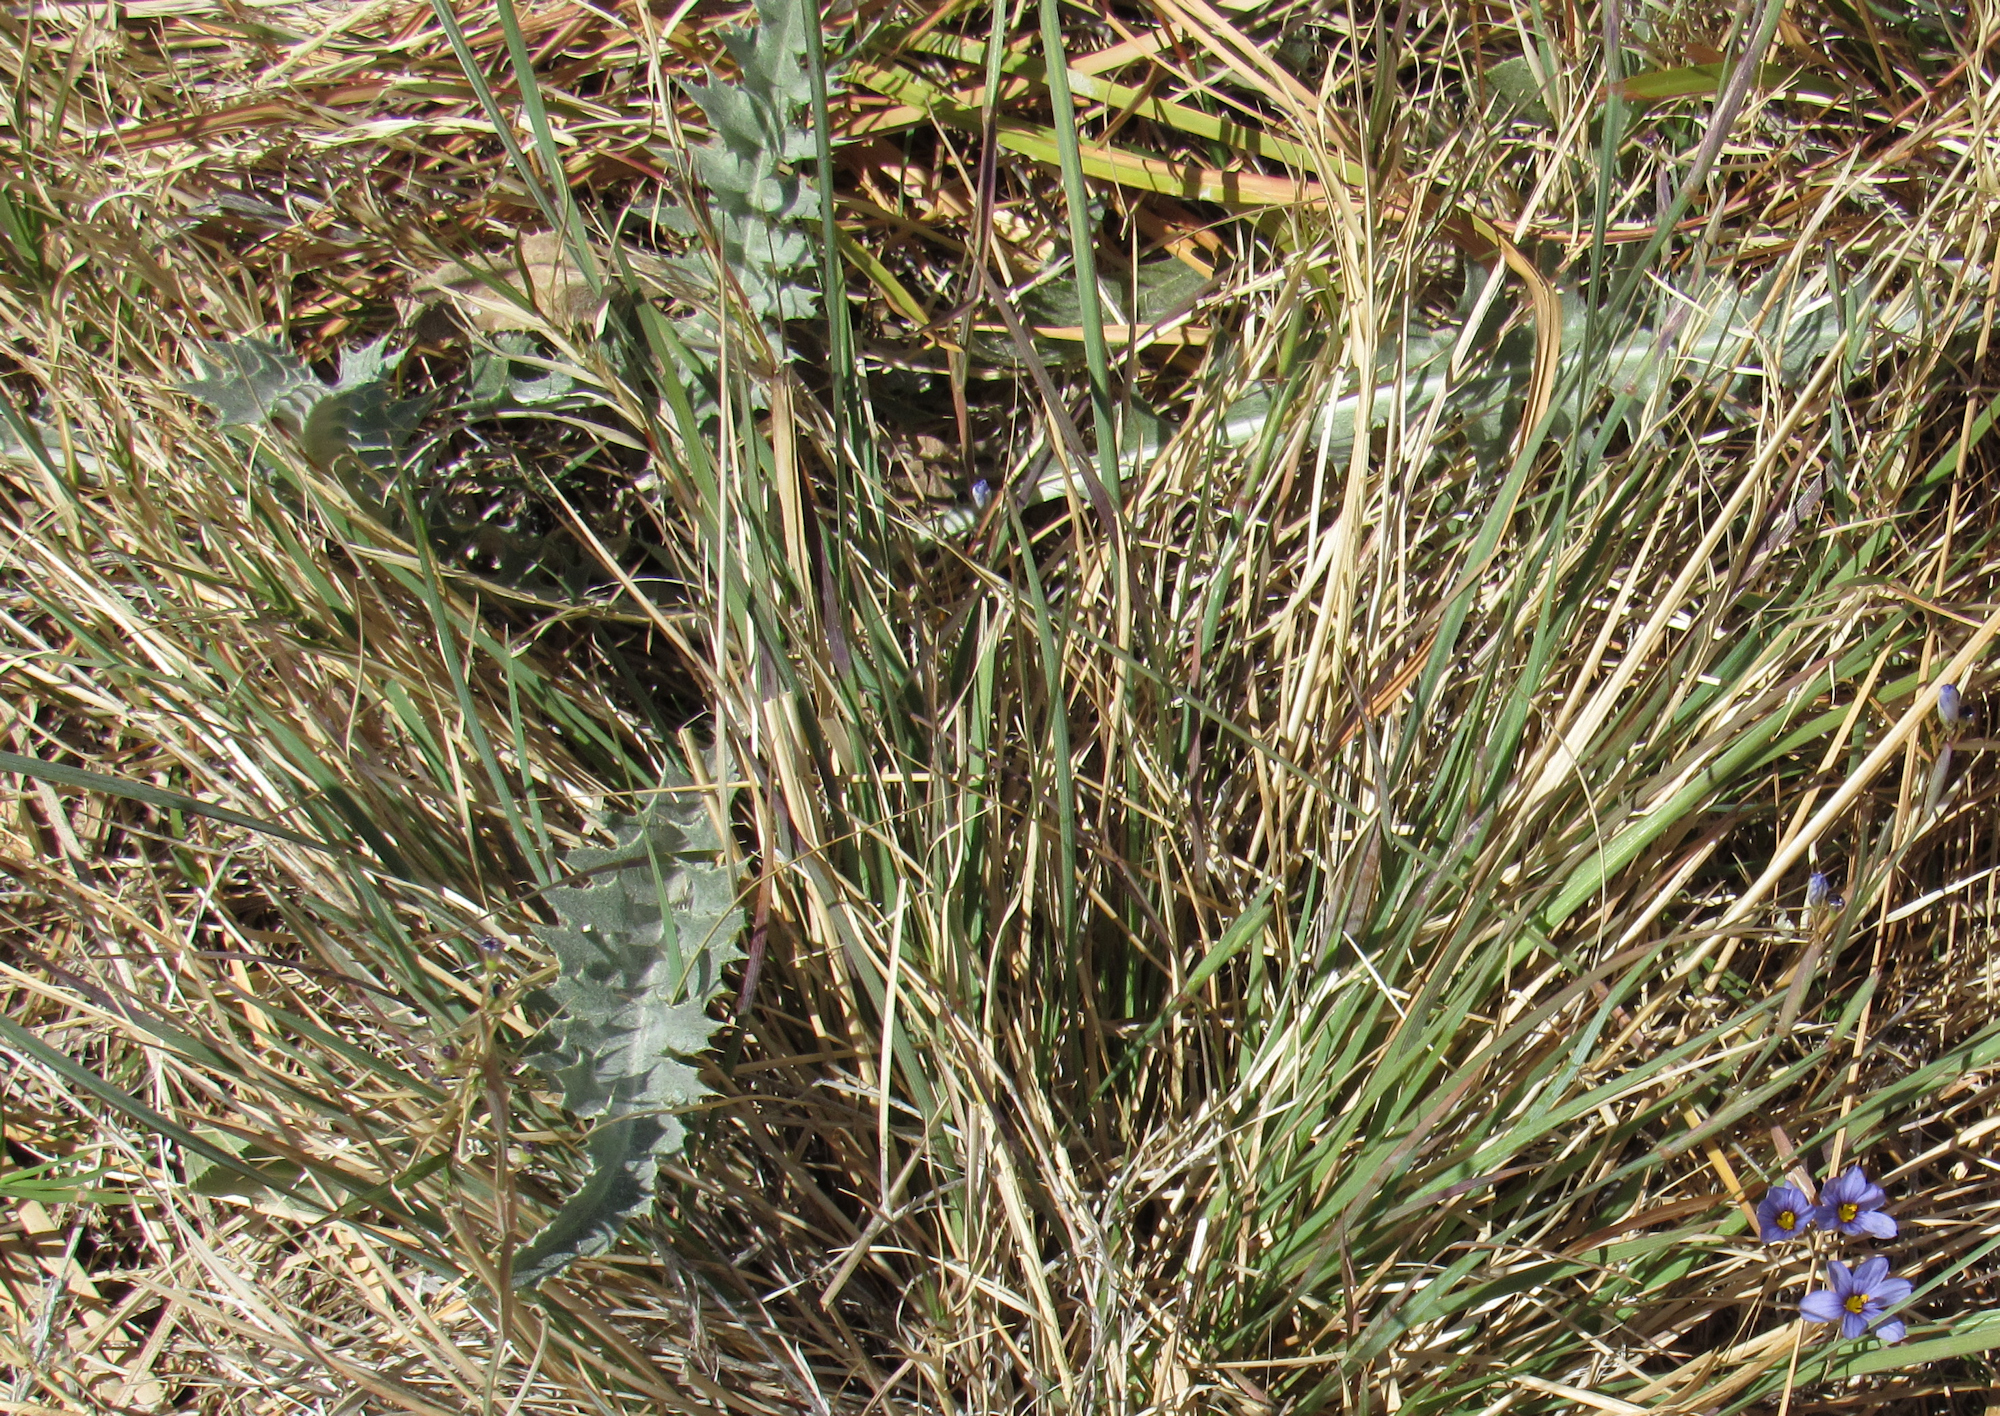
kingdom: Plantae
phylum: Tracheophyta
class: Magnoliopsida
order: Asterales
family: Asteraceae
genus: Cirsium
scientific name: Cirsium mohavense
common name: Mojave thistle
